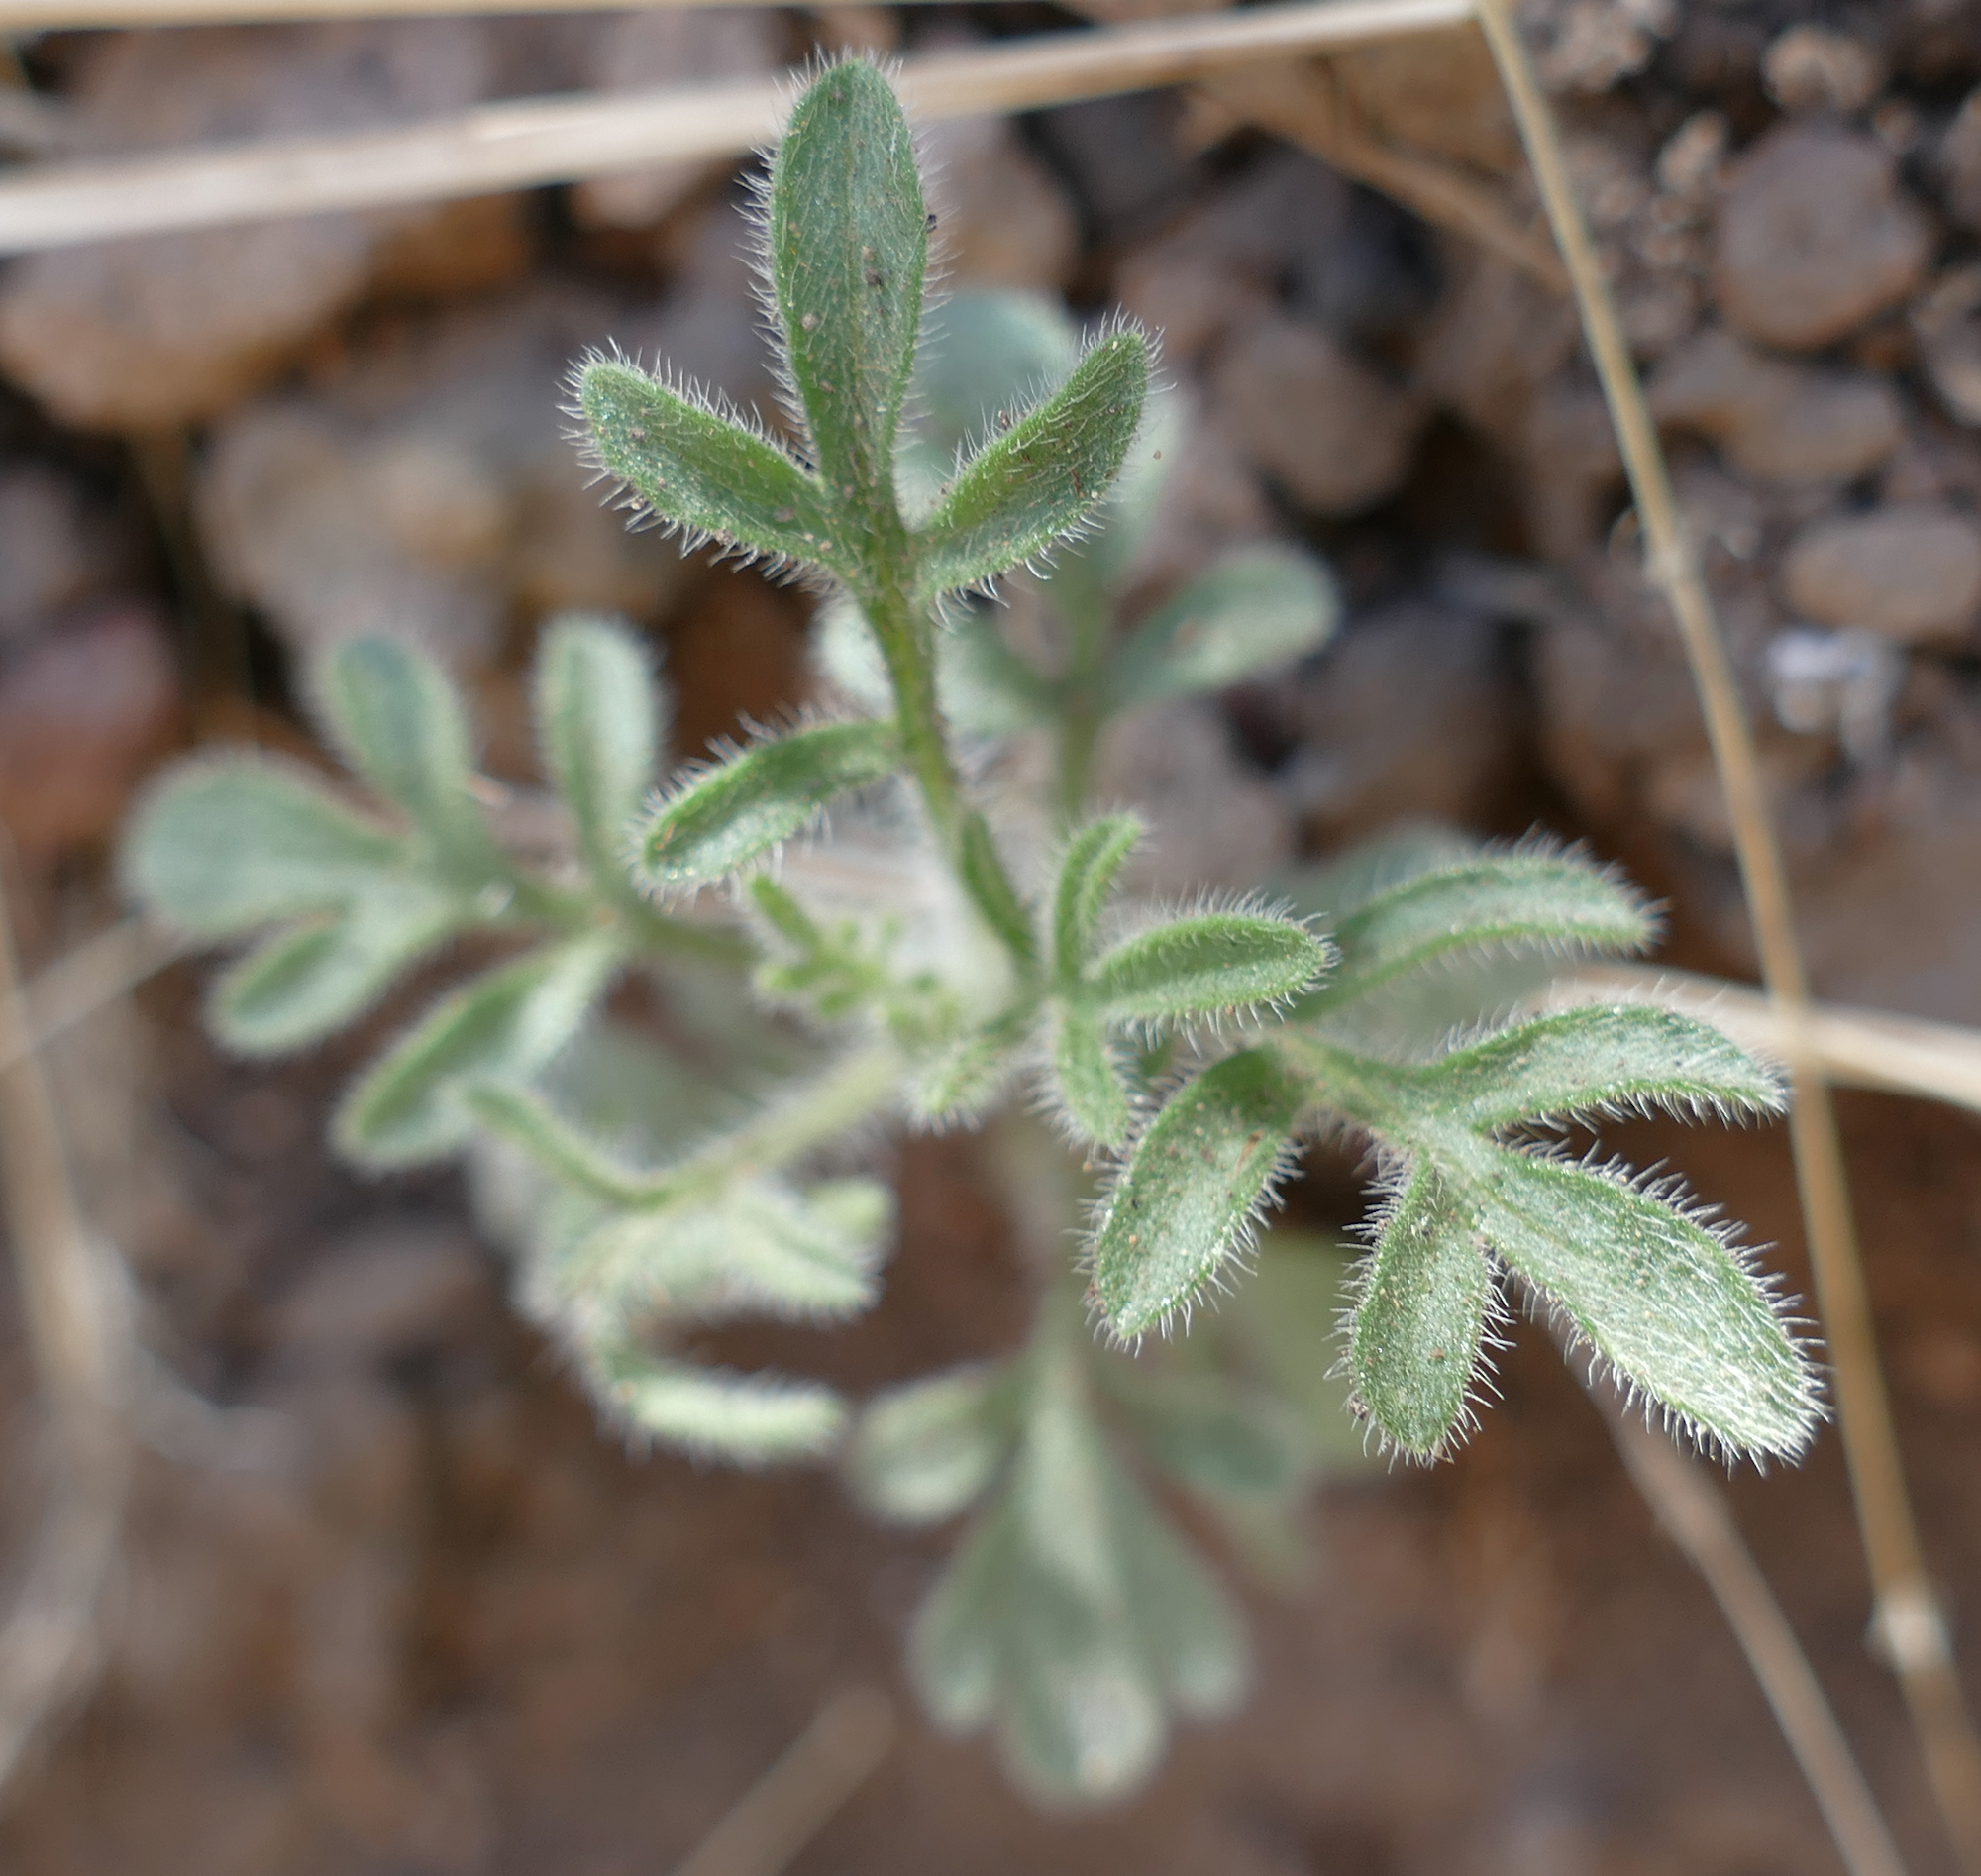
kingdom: Plantae
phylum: Tracheophyta
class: Magnoliopsida
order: Asterales
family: Asteraceae
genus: Erigeron
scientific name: Erigeron neomexicanus
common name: New mexico fleabane
